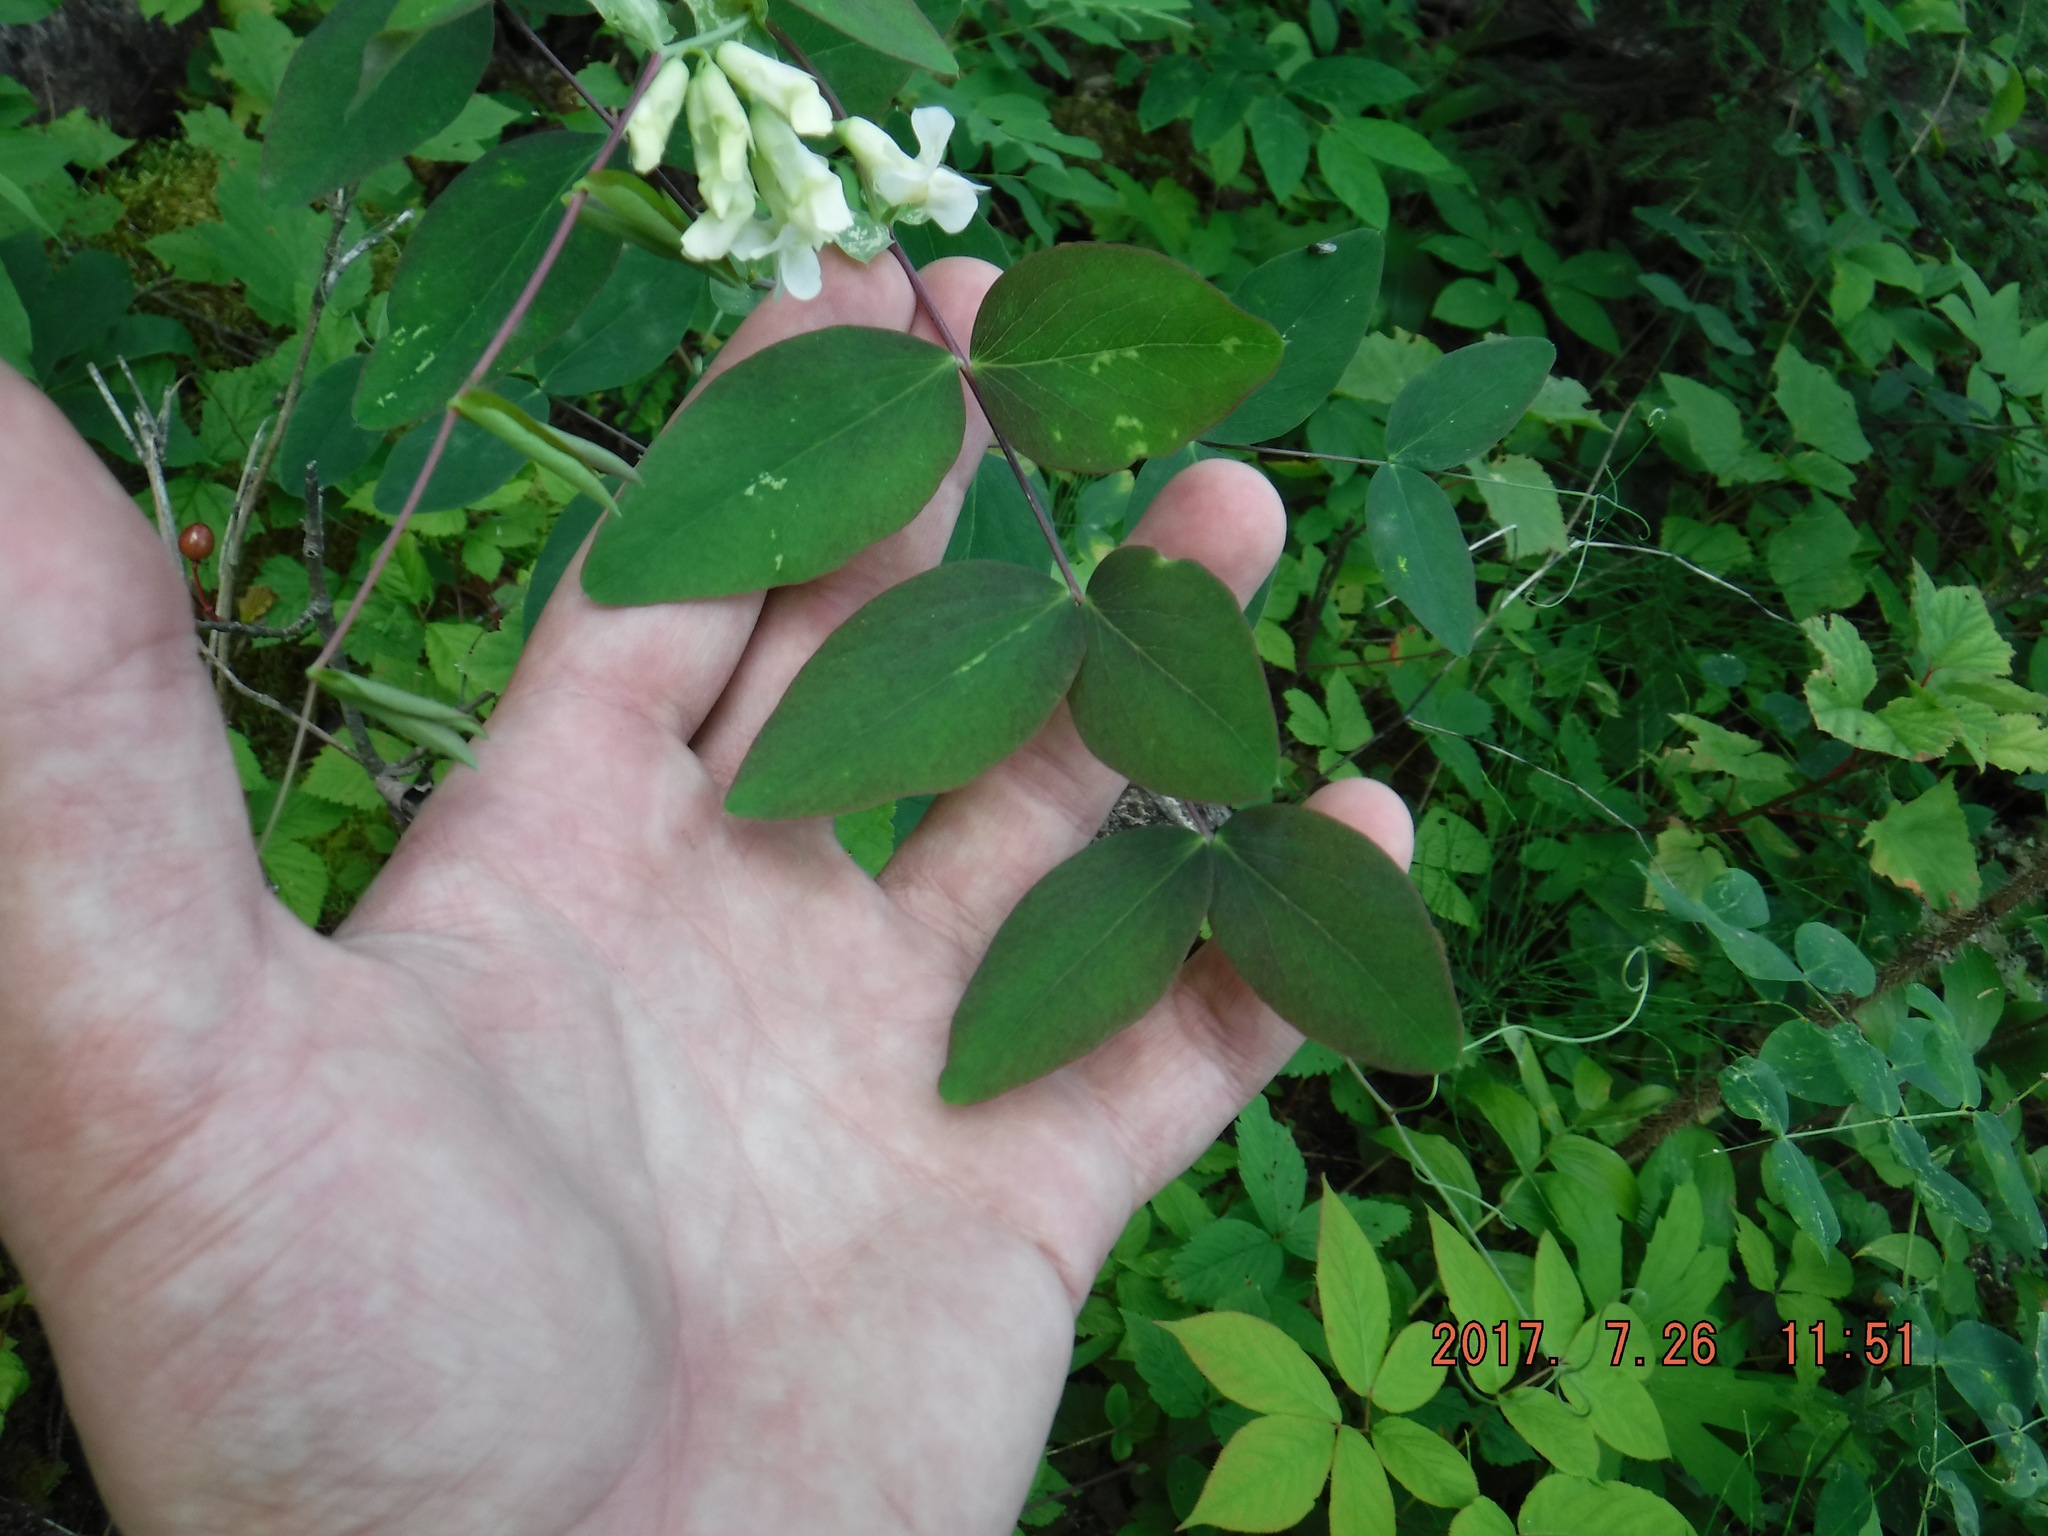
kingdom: Plantae
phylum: Tracheophyta
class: Magnoliopsida
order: Fabales
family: Fabaceae
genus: Lathyrus
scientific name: Lathyrus ochroleucus
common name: Pale vetchling
